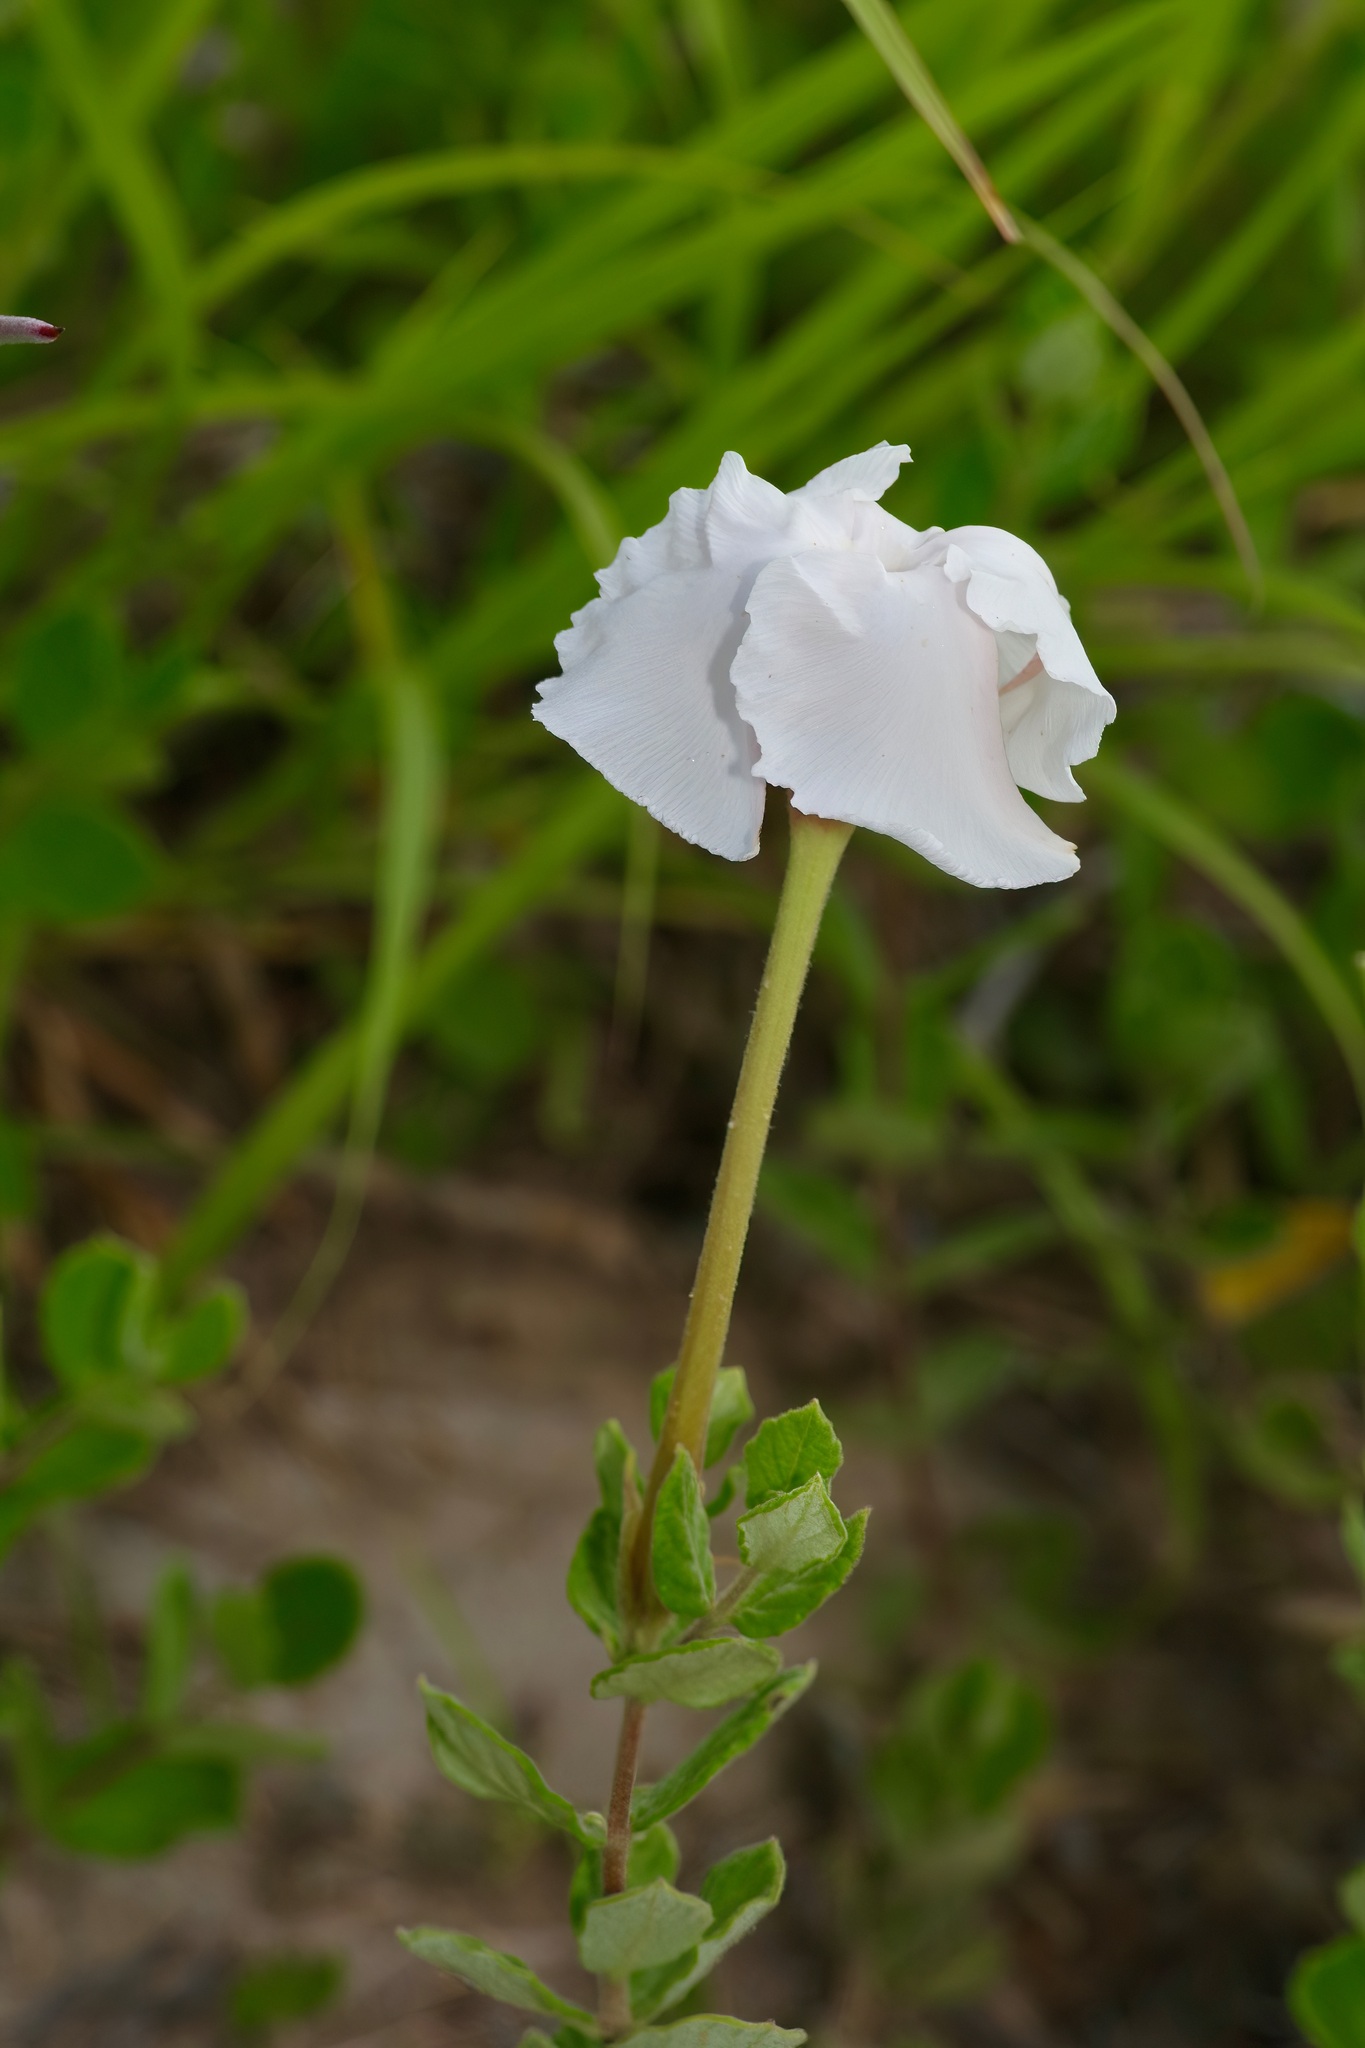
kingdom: Plantae
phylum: Tracheophyta
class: Magnoliopsida
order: Gentianales
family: Apocynaceae
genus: Mandevilla
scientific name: Mandevilla lanuginosa
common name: Plateau rocktrumpet
